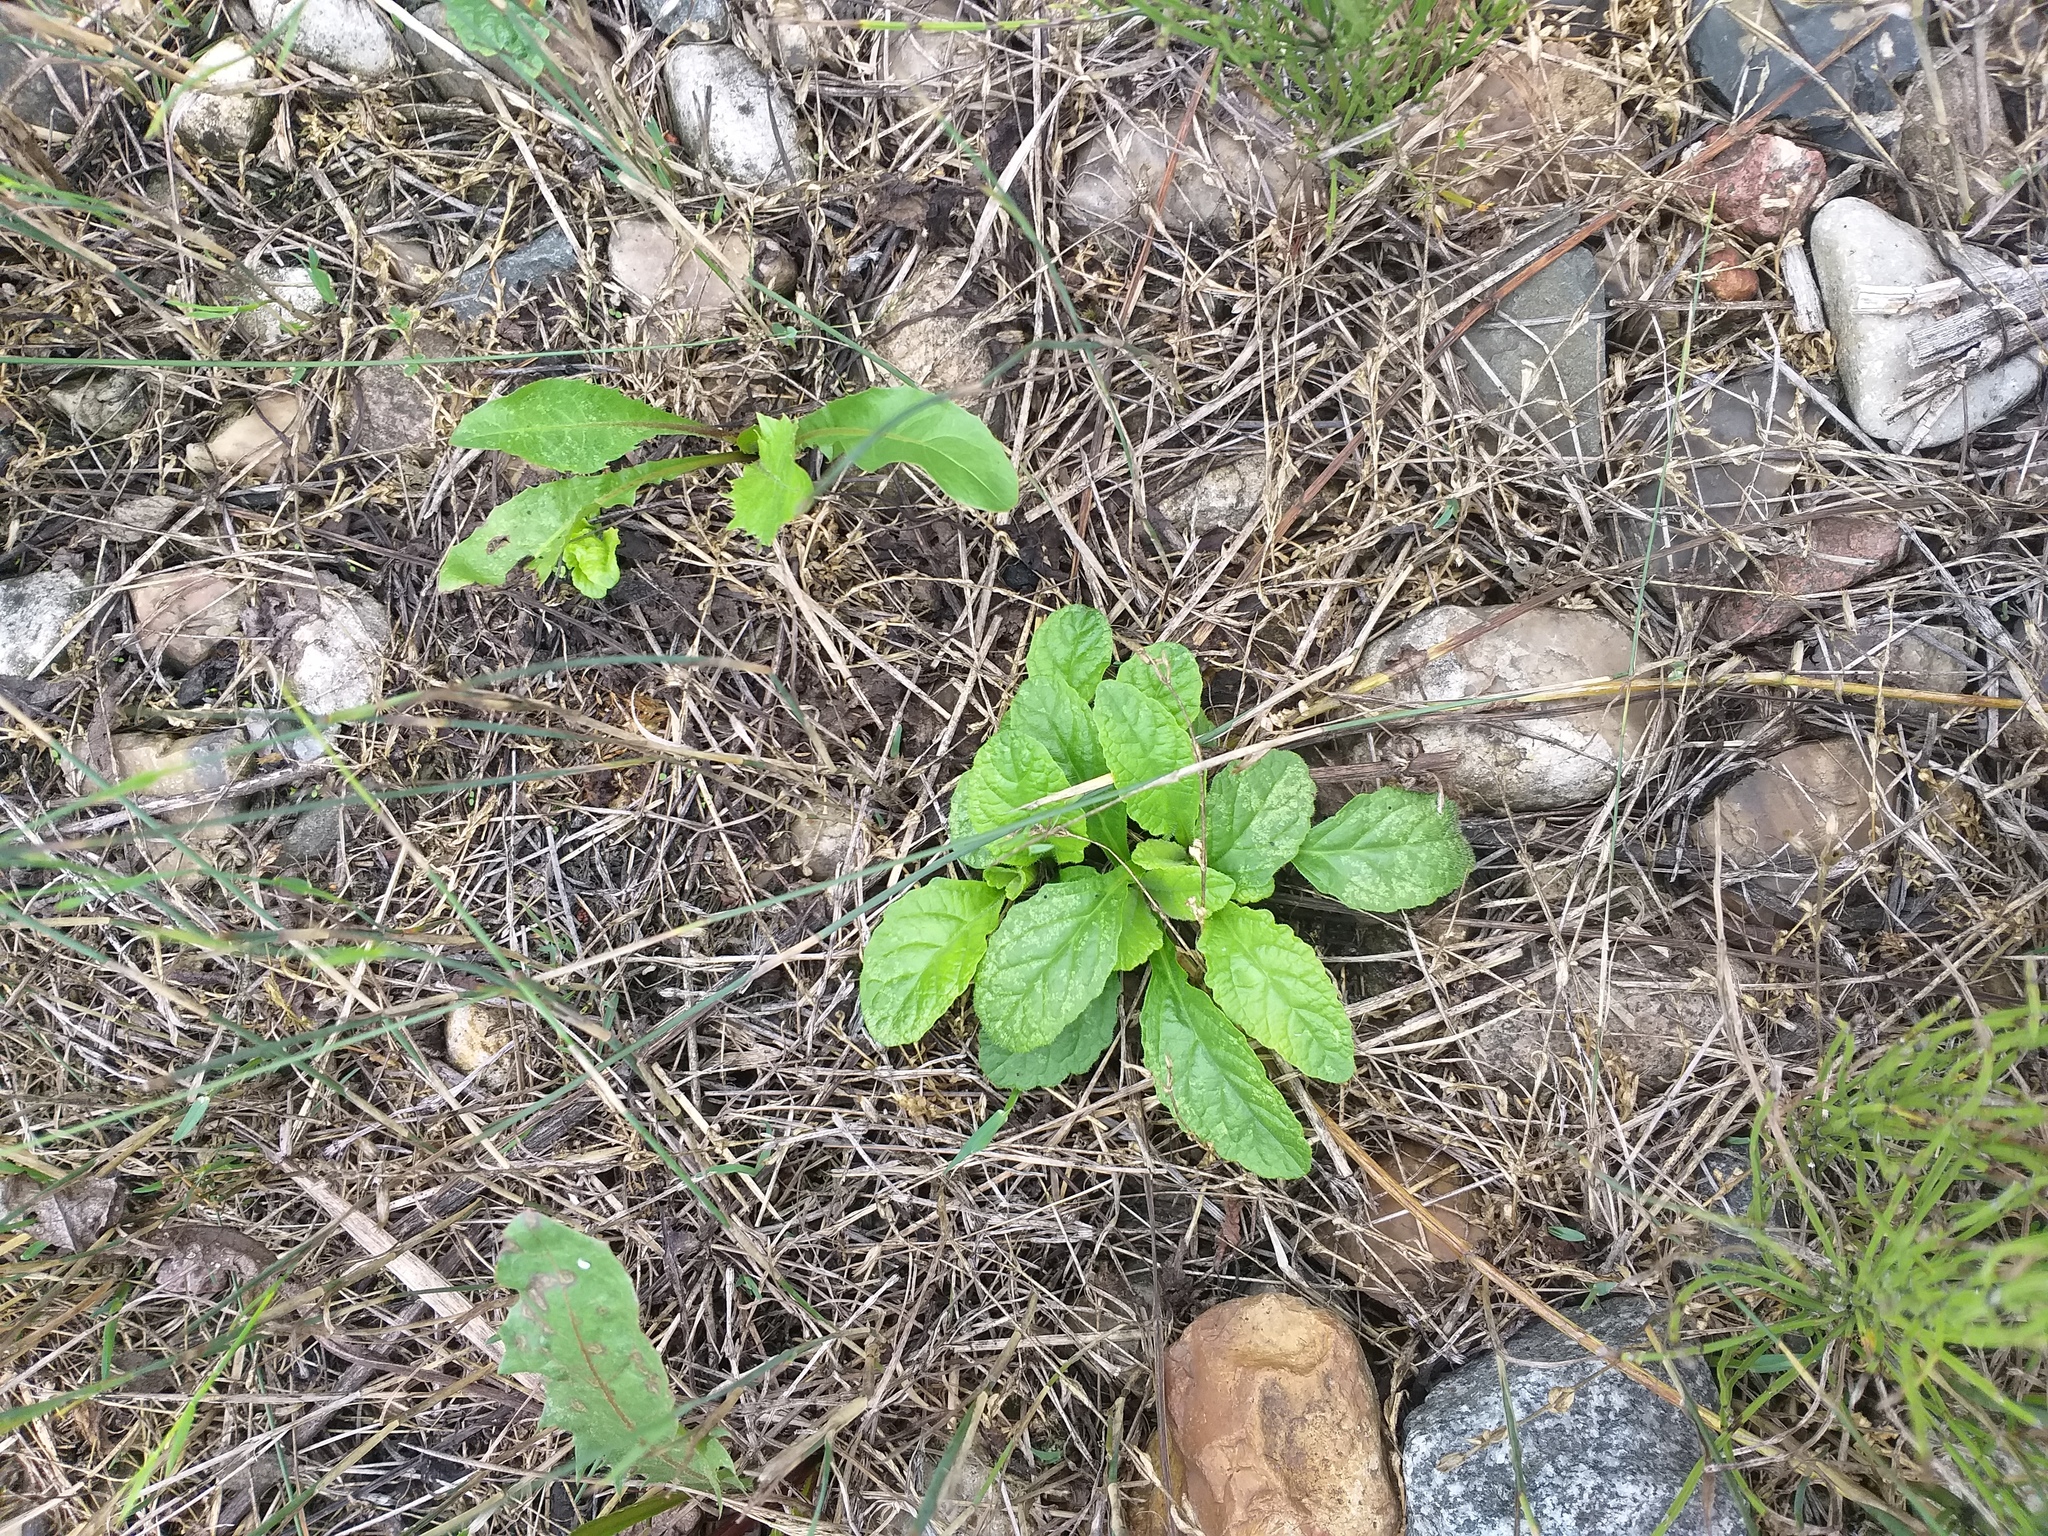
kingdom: Plantae
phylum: Tracheophyta
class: Magnoliopsida
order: Lamiales
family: Lamiaceae
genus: Ajuga
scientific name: Ajuga reptans
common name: Bugle
